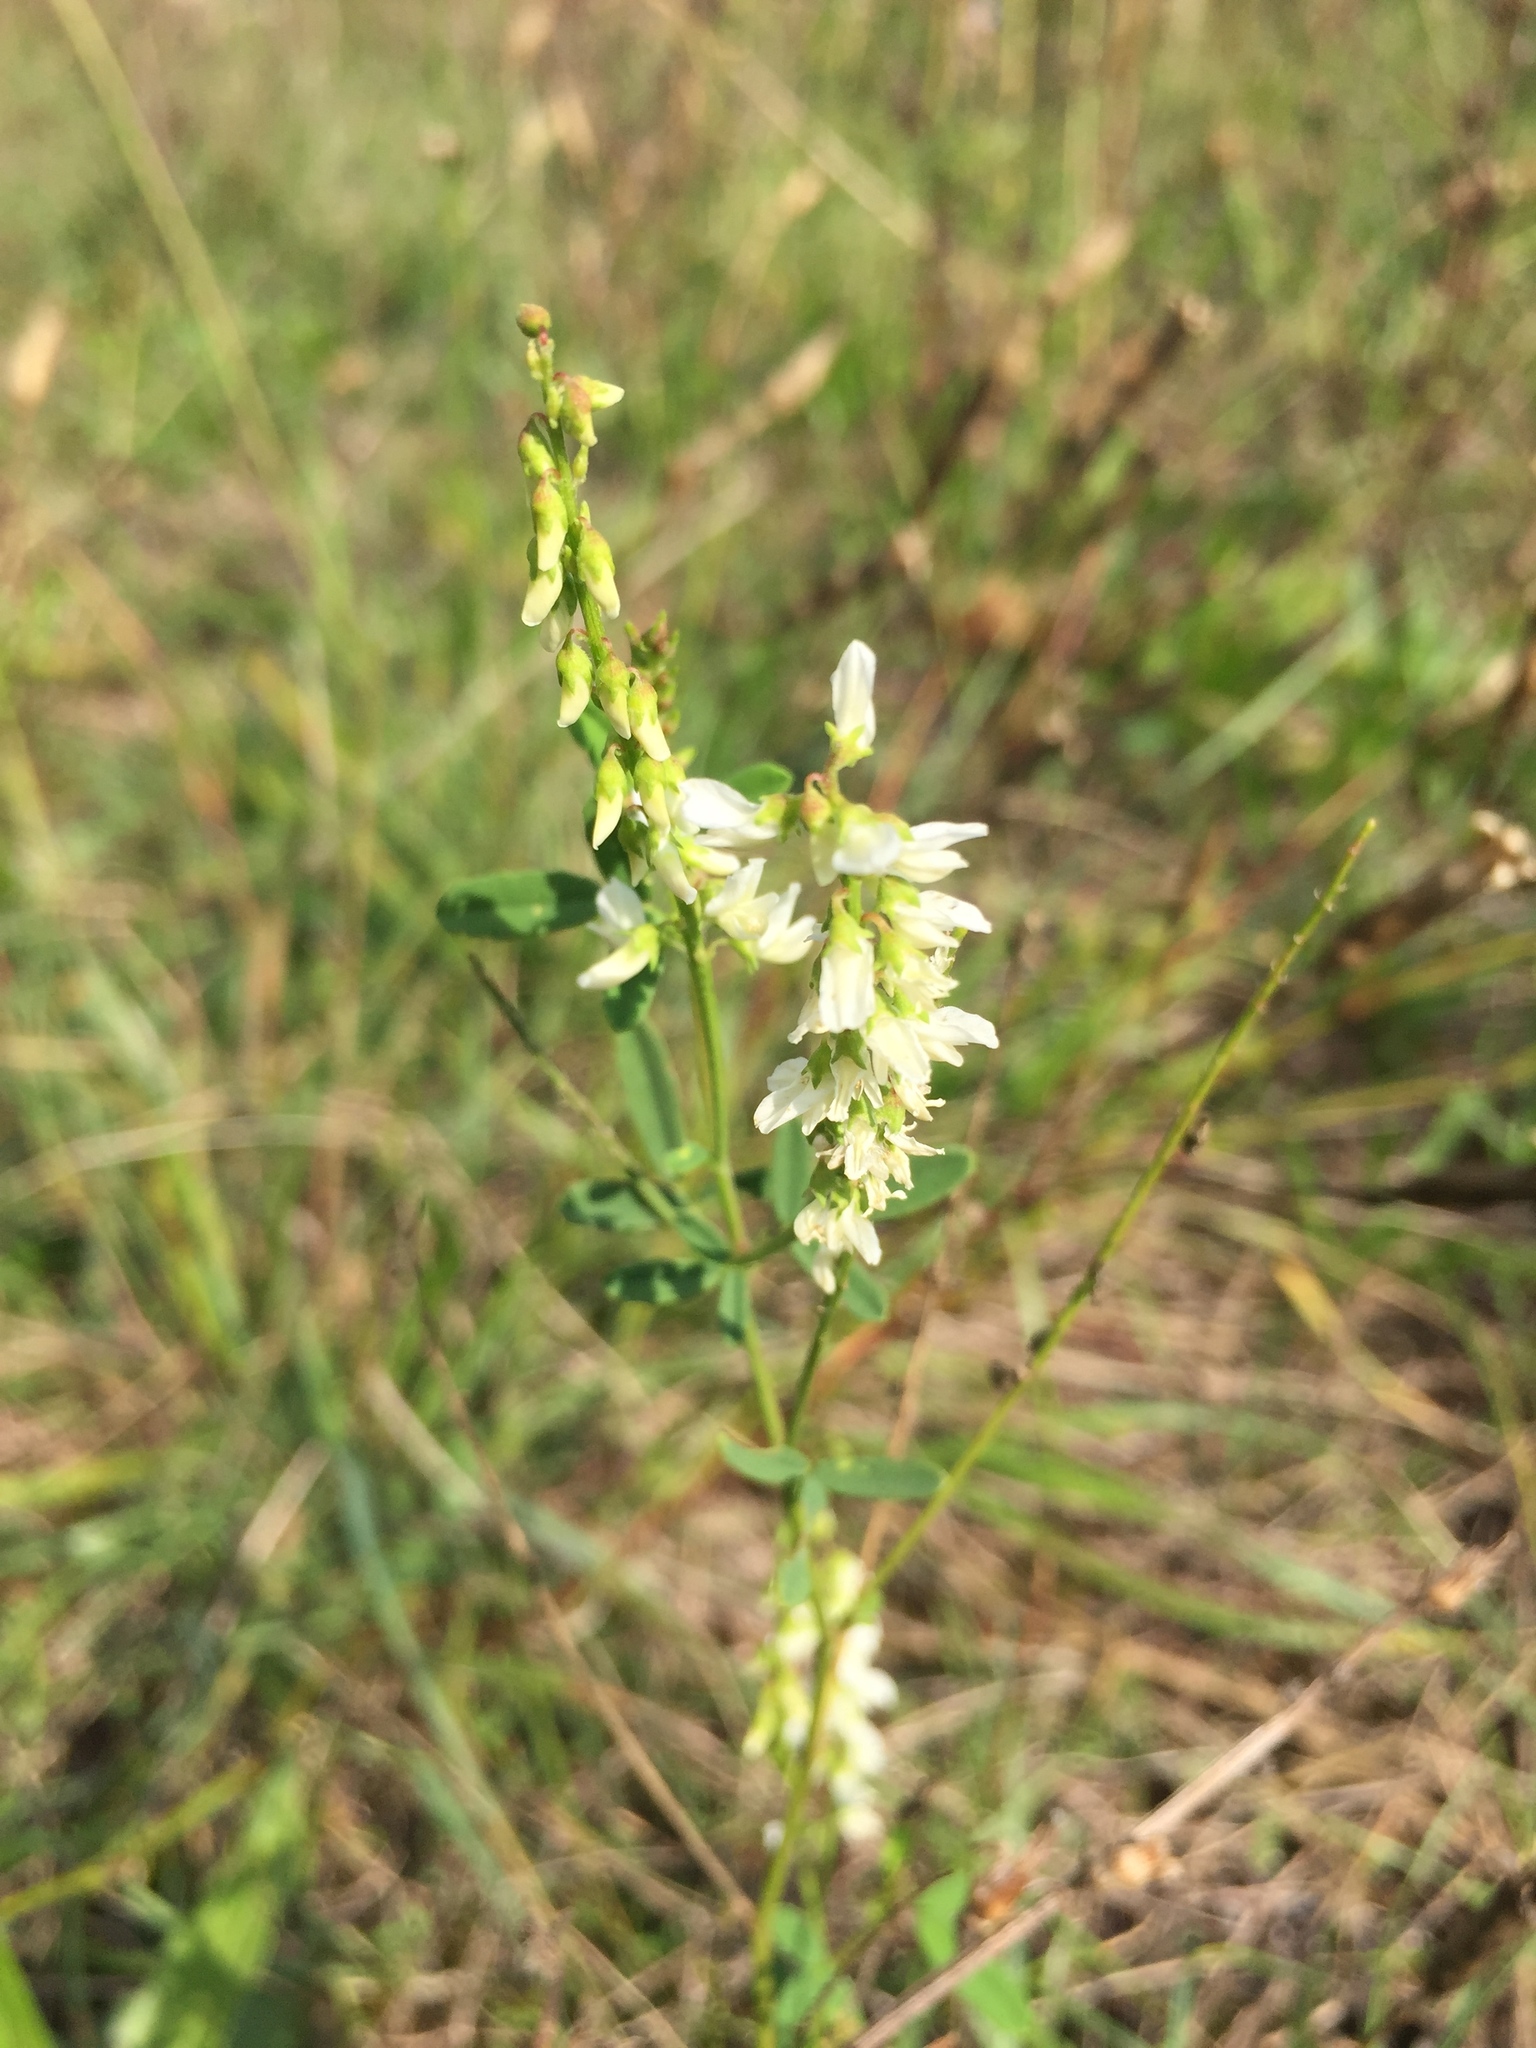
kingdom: Plantae
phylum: Tracheophyta
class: Magnoliopsida
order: Fabales
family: Fabaceae
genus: Melilotus
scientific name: Melilotus albus
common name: White melilot
